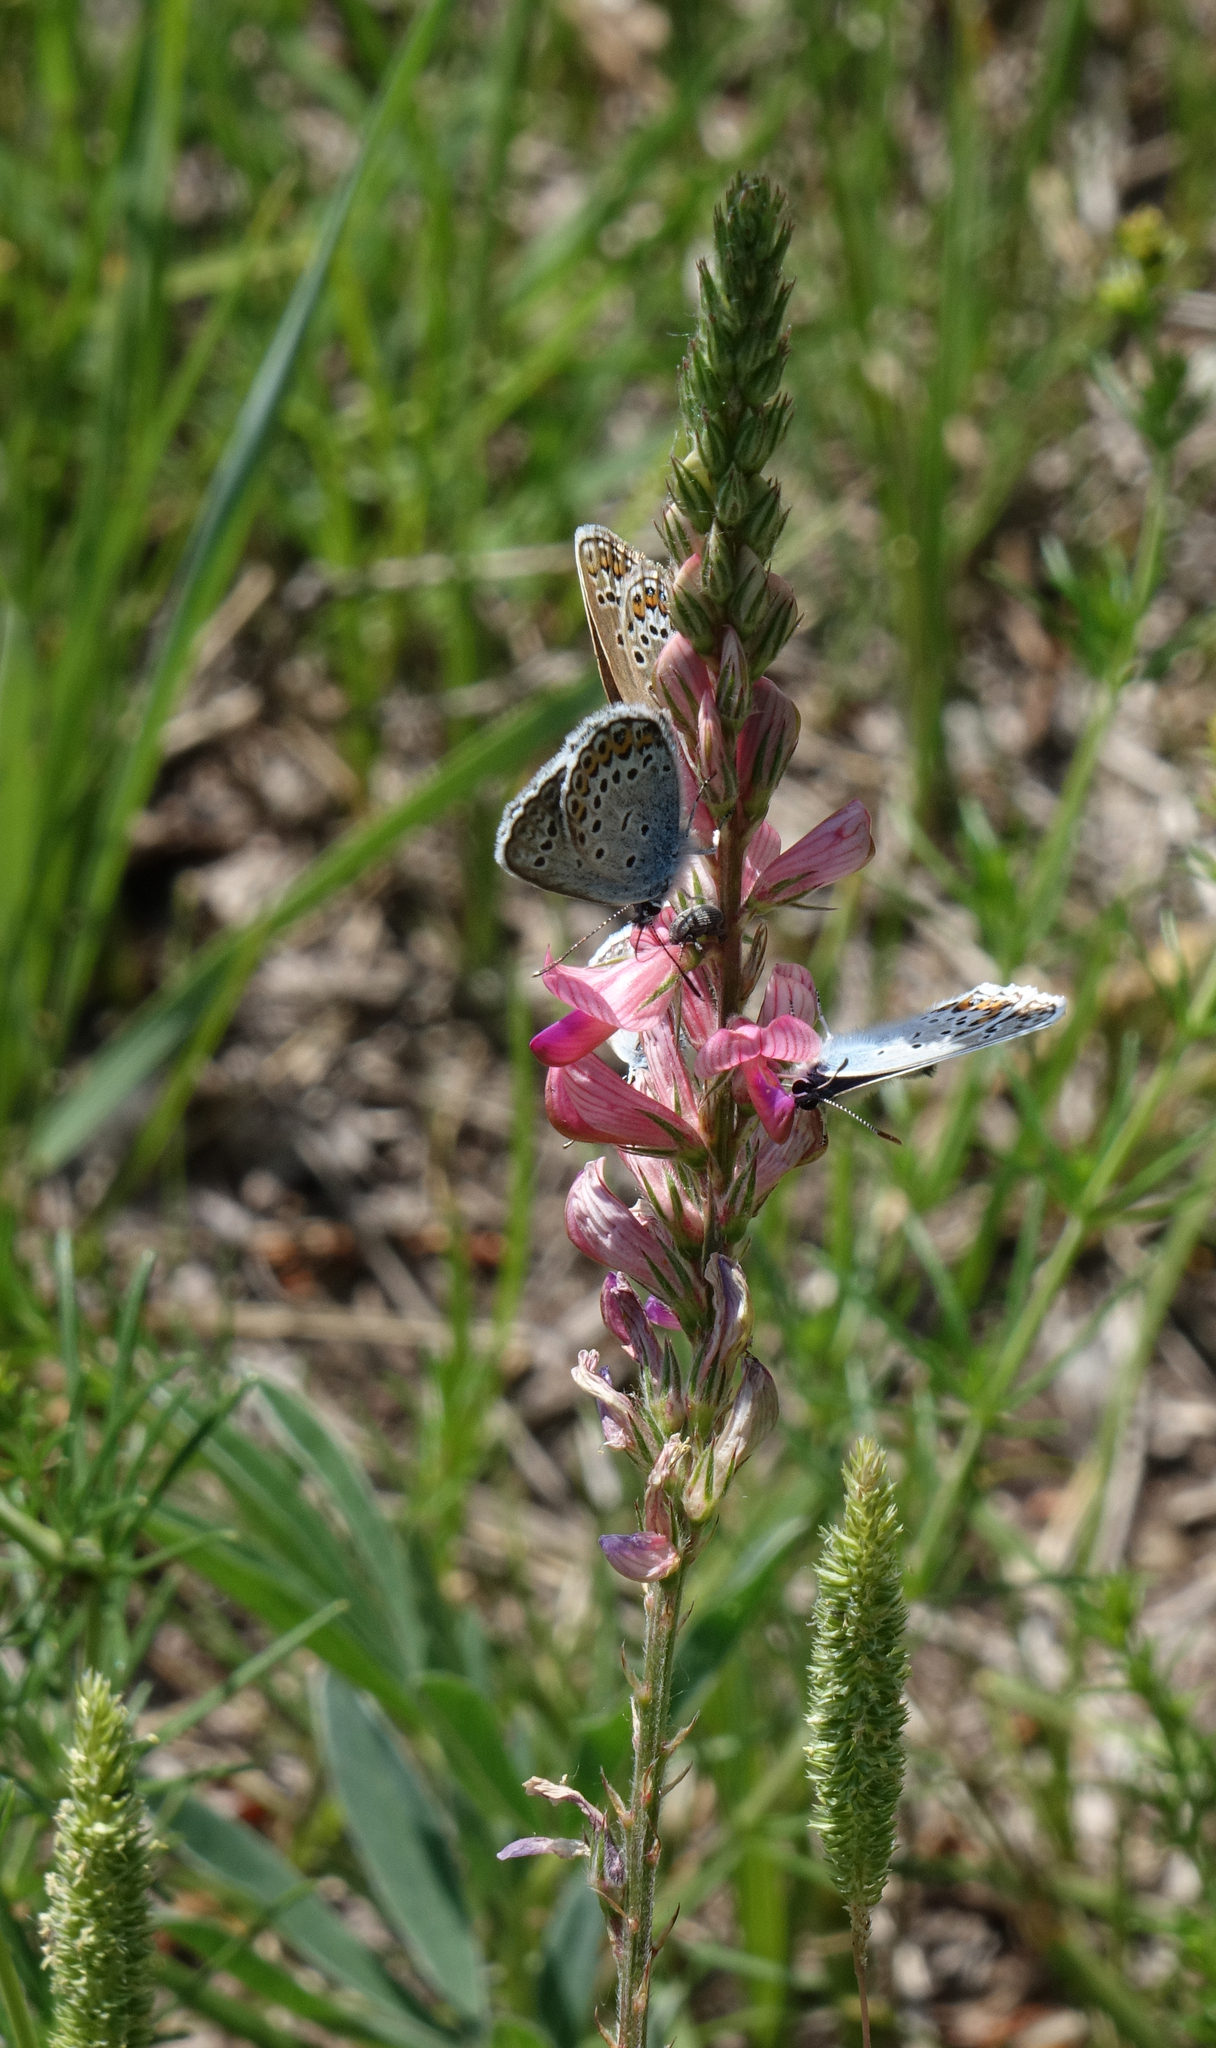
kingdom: Plantae
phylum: Tracheophyta
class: Magnoliopsida
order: Fabales
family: Fabaceae
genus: Onobrychis
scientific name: Onobrychis arenaria
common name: Sand esparcet
